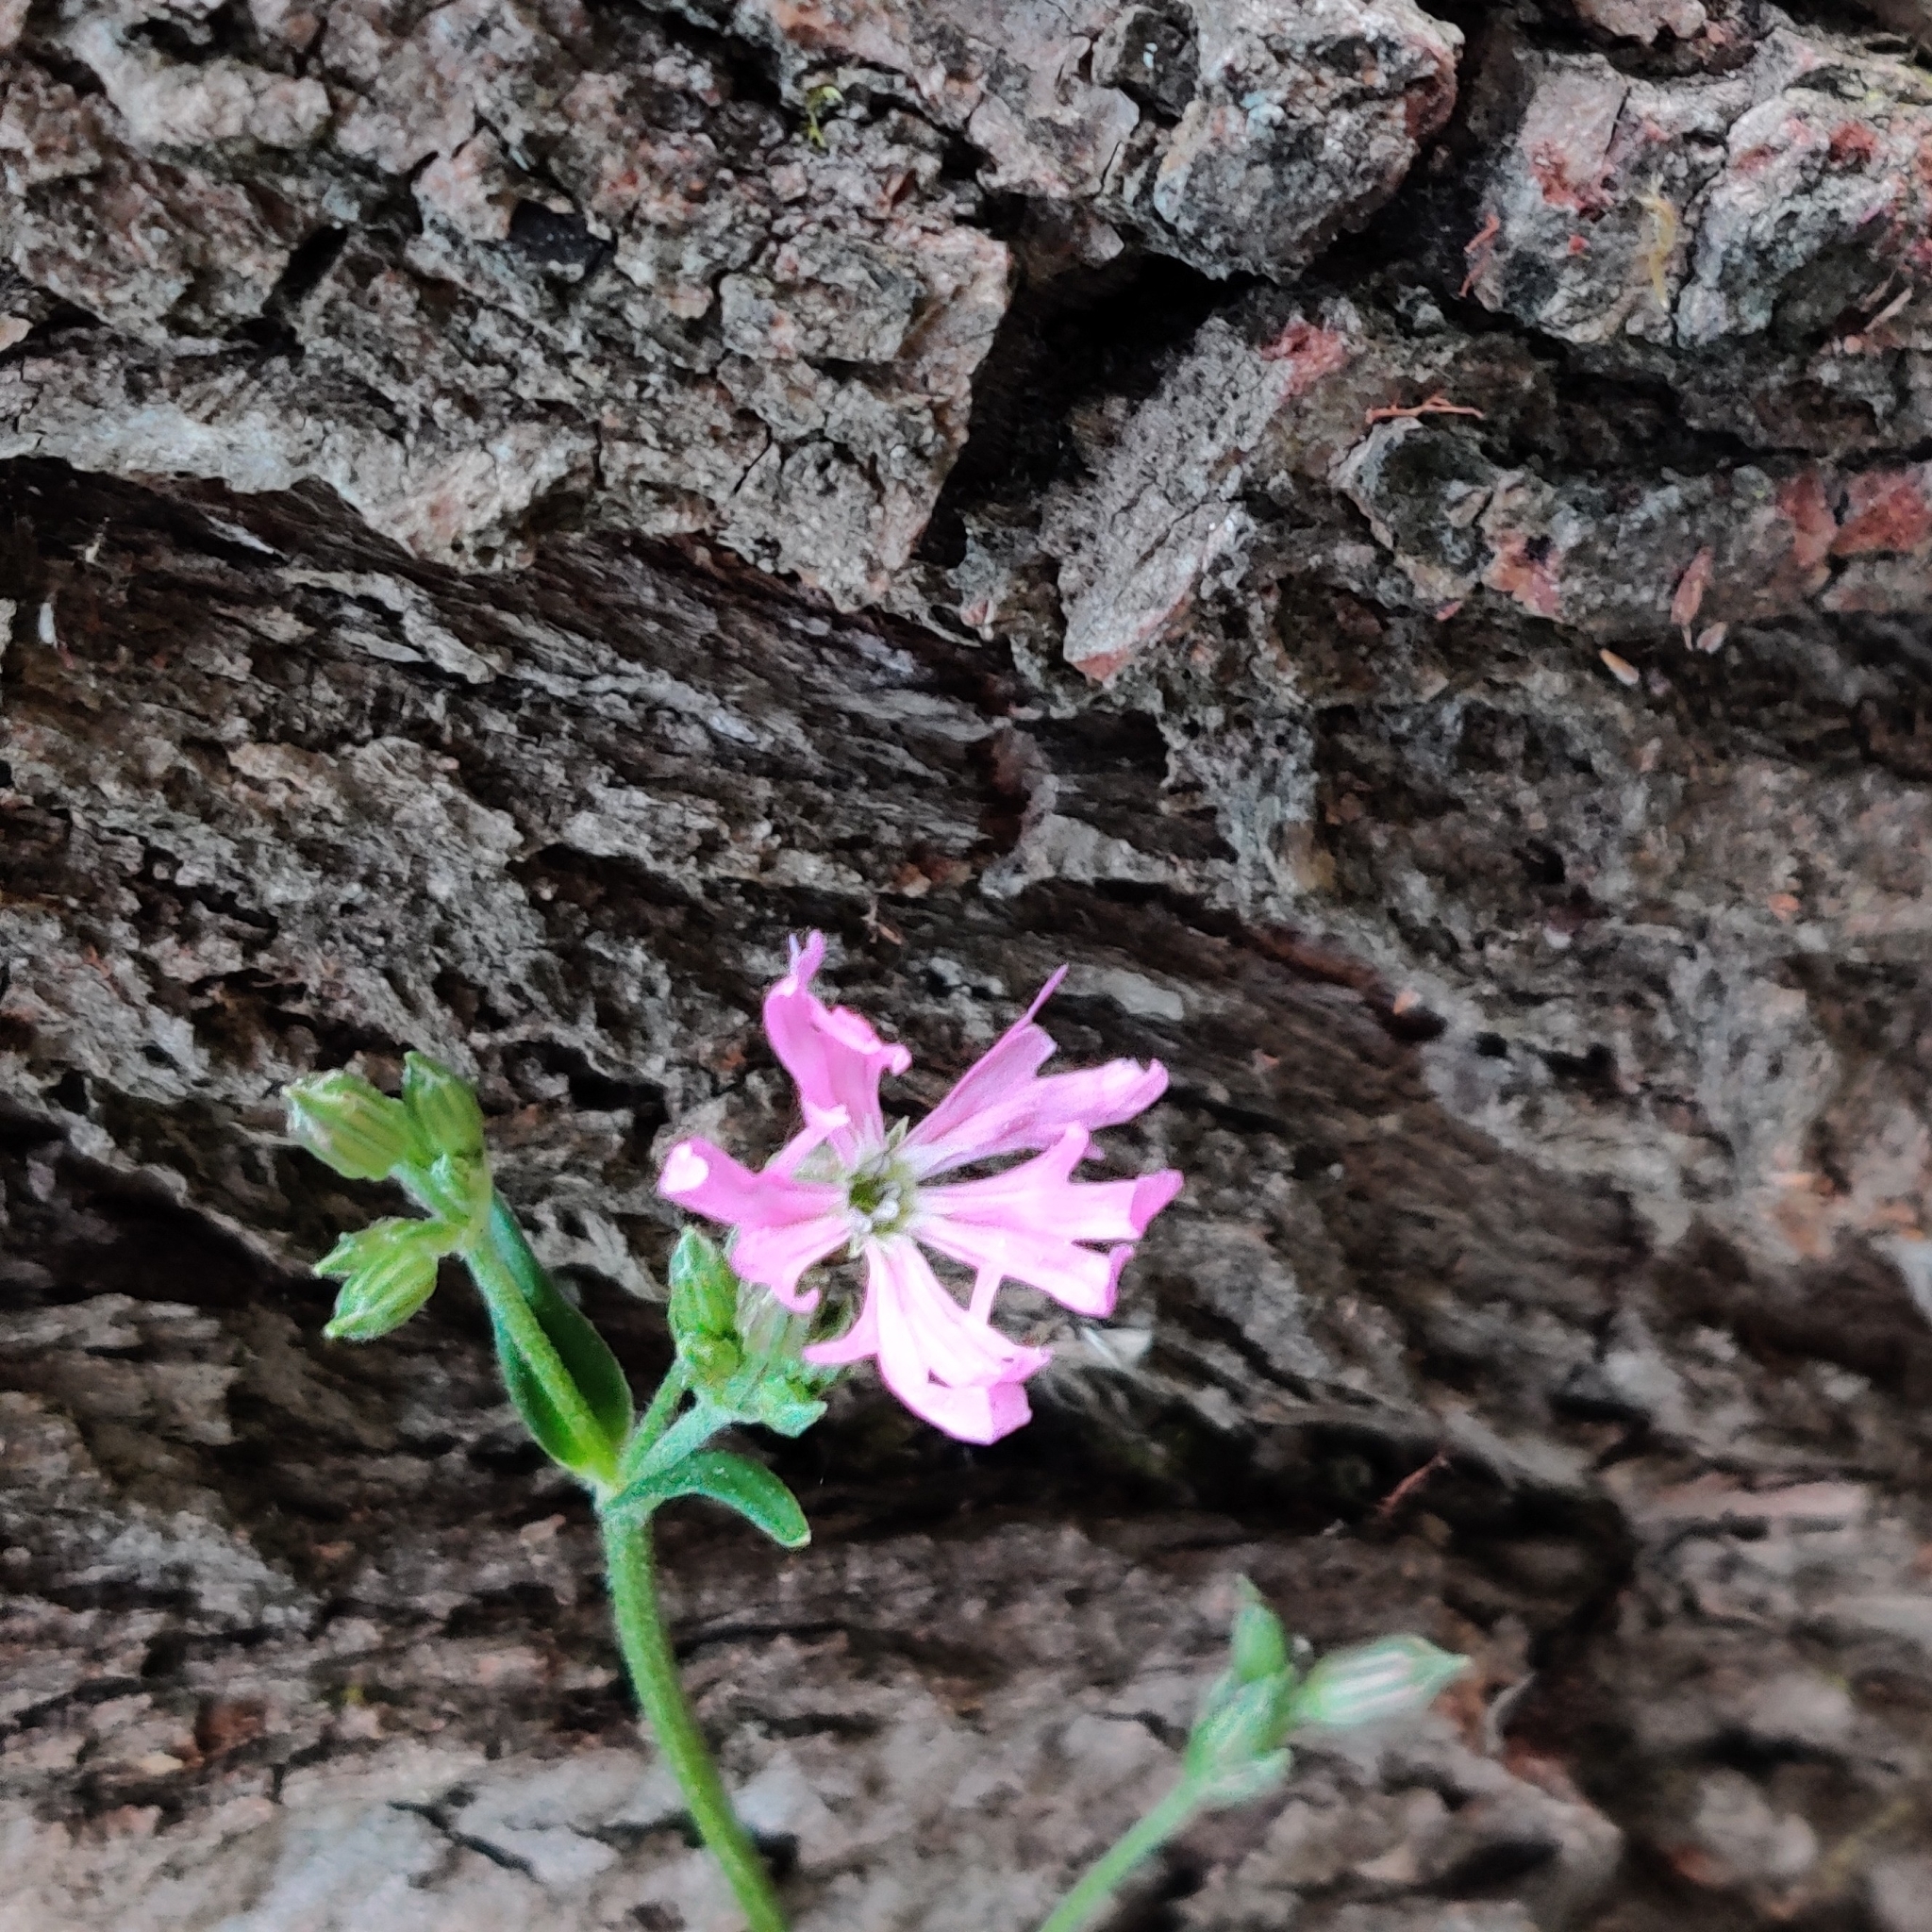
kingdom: Plantae
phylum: Tracheophyta
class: Magnoliopsida
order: Caryophyllales
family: Caryophyllaceae
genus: Silene
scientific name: Silene flos-cuculi
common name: Ragged-robin
